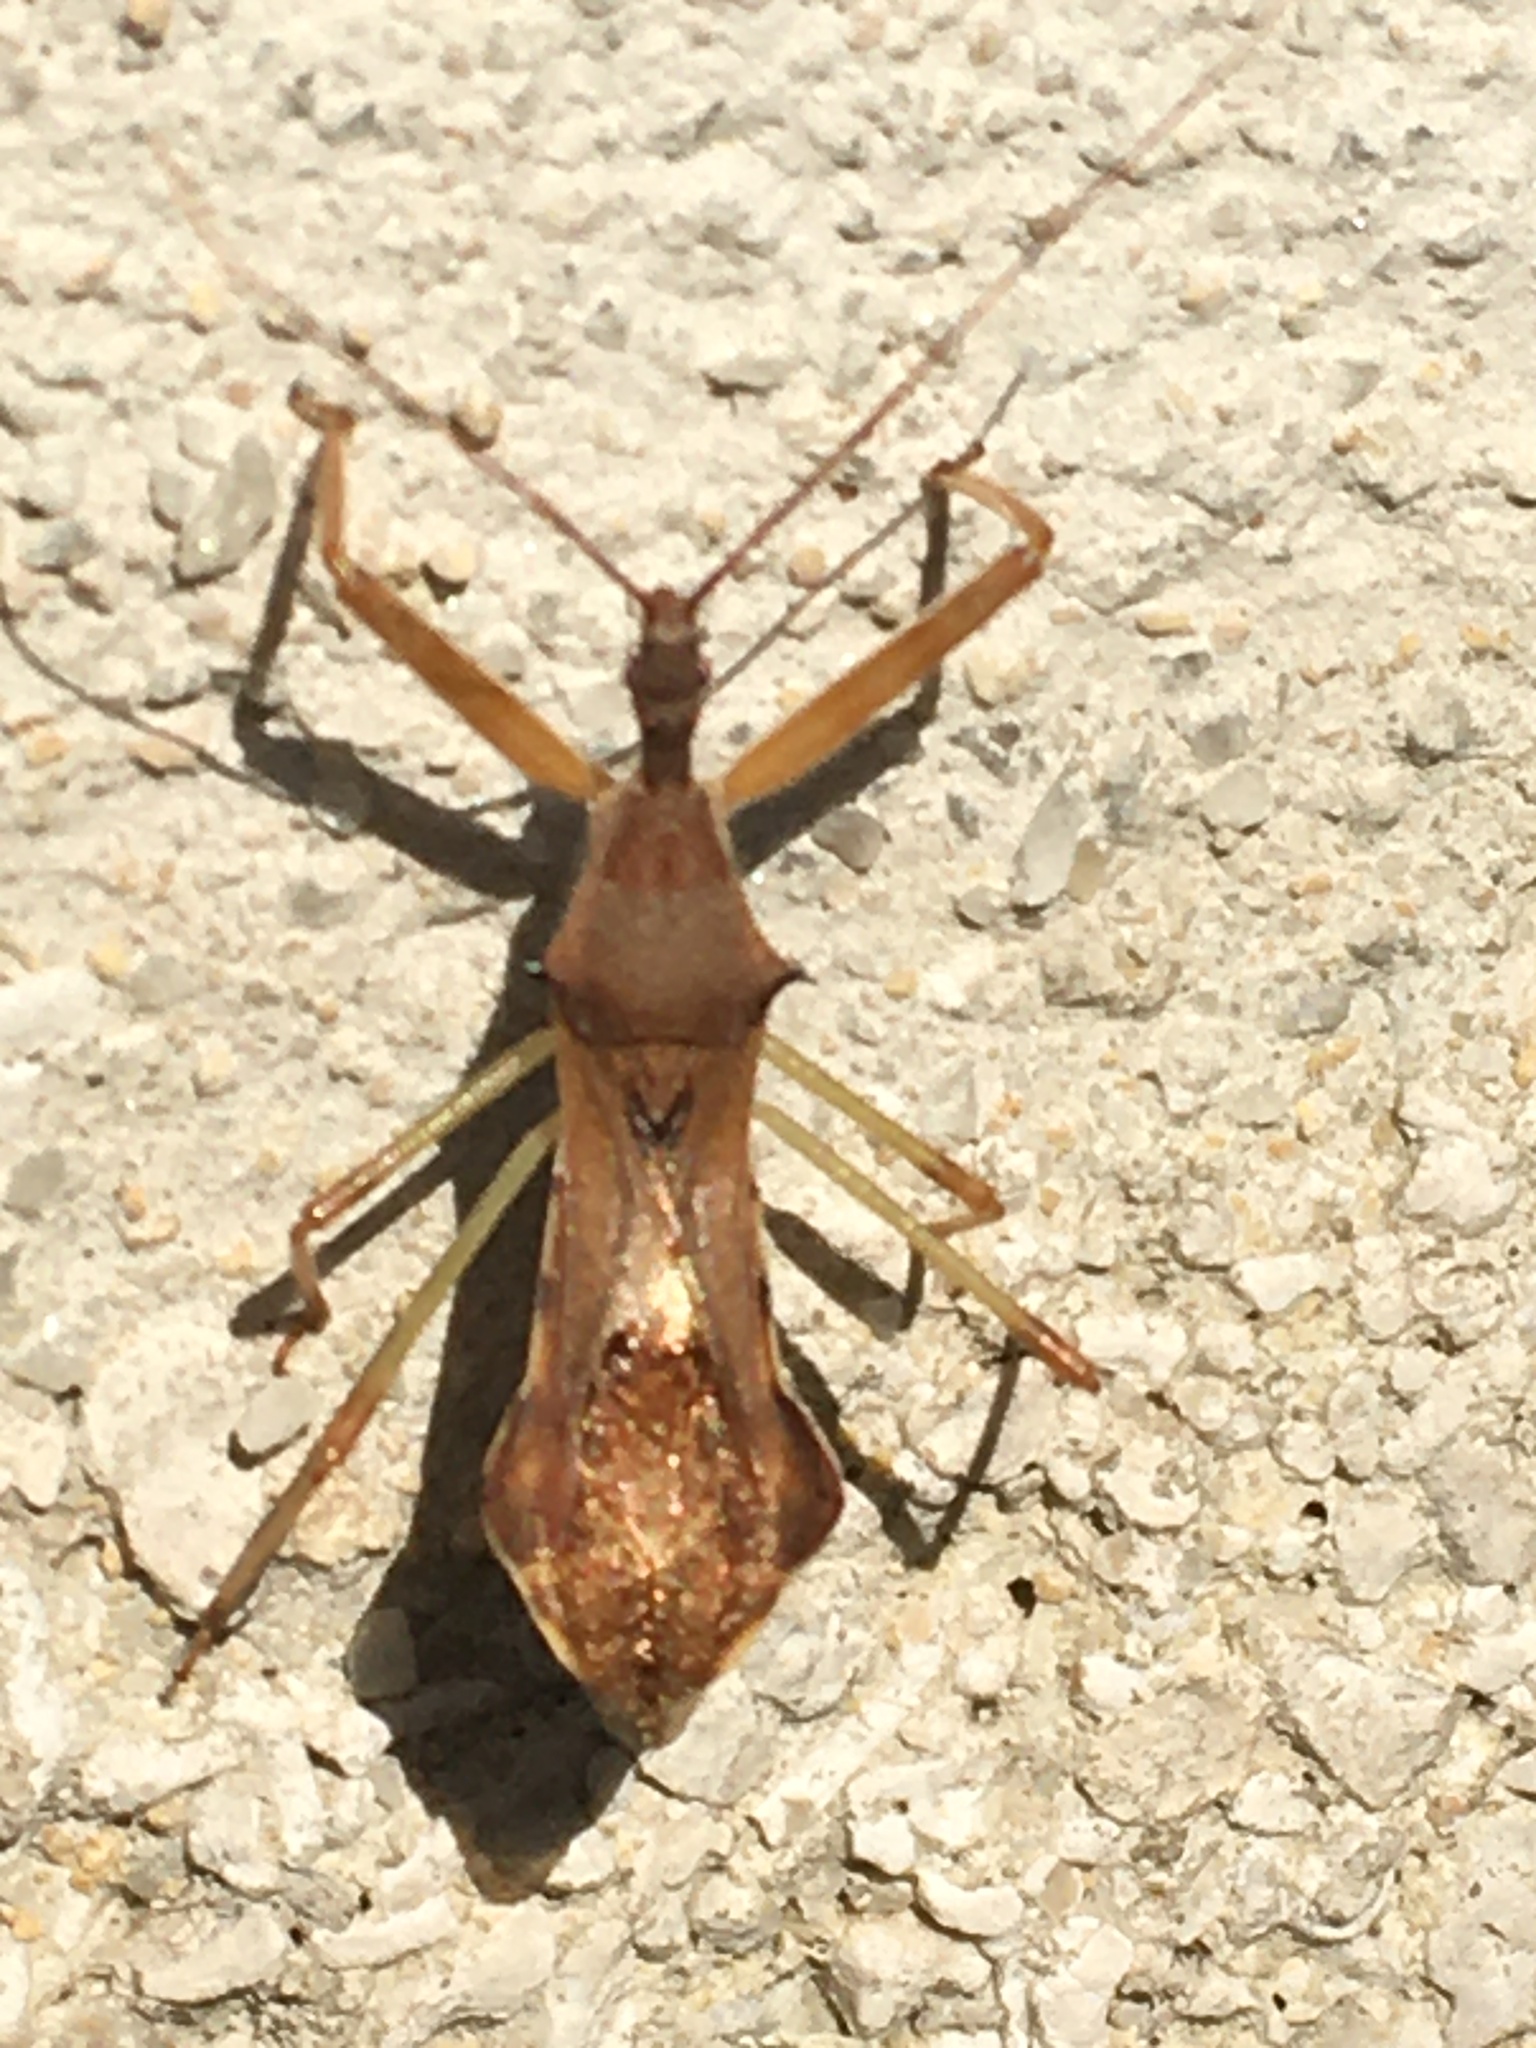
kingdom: Animalia
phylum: Arthropoda
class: Insecta
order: Hemiptera
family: Reduviidae
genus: Nagusta
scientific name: Nagusta goedelii
